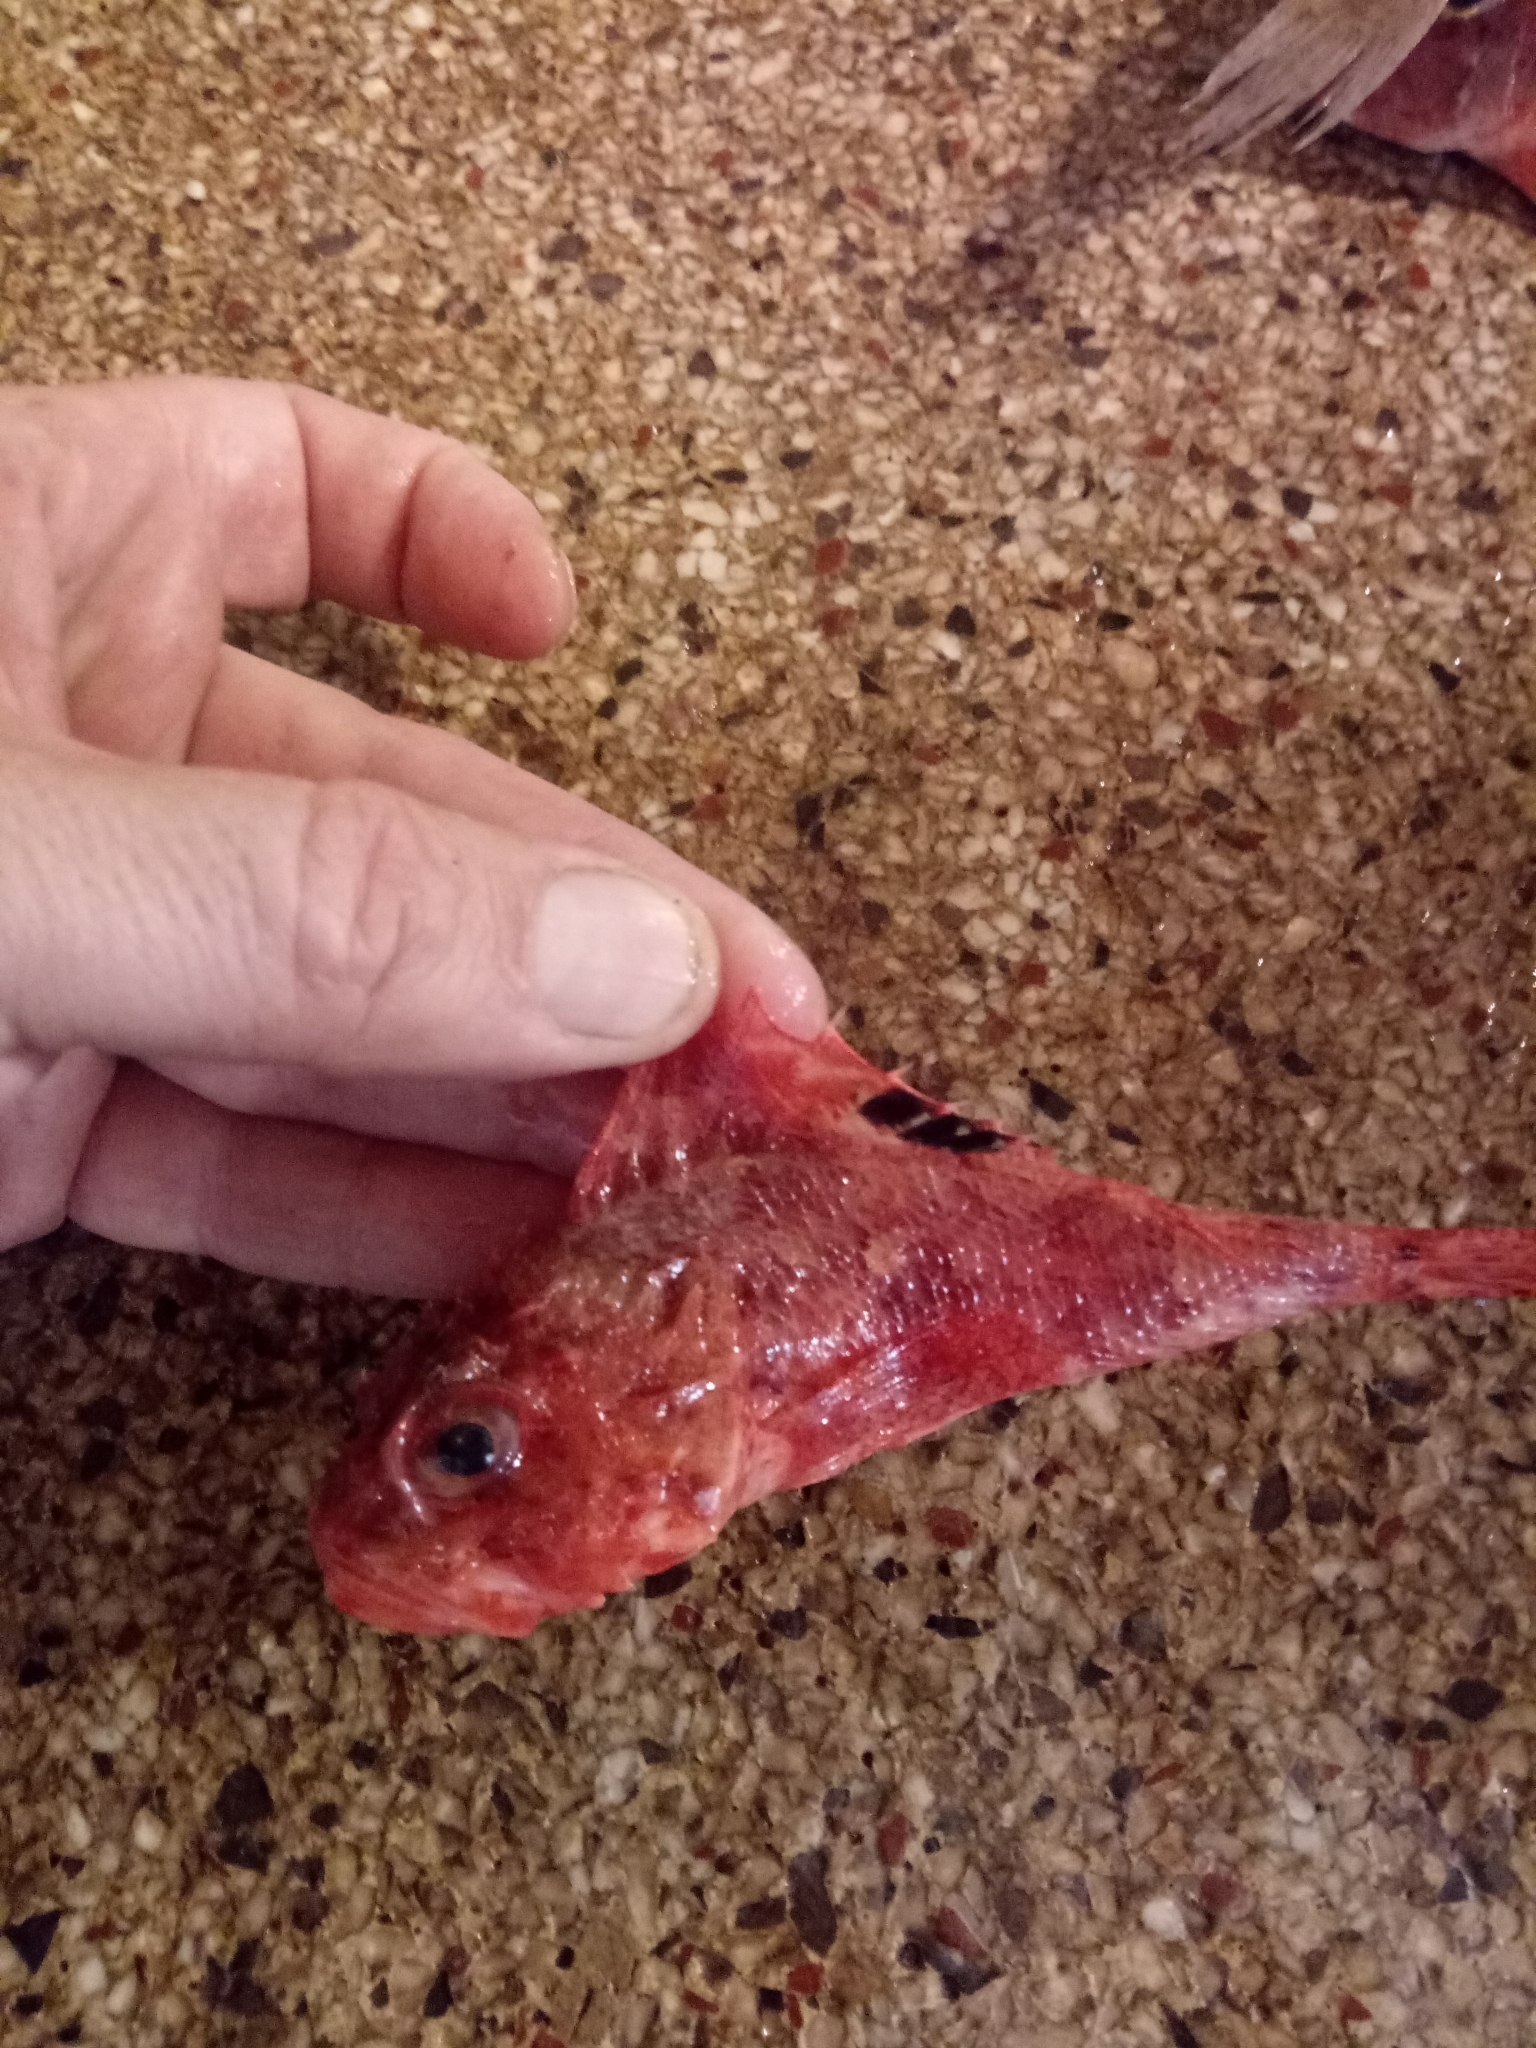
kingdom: Animalia
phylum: Chordata
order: Scorpaeniformes
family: Scorpaenidae
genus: Scorpaena
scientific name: Scorpaena notata
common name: Small red scorpionfish
